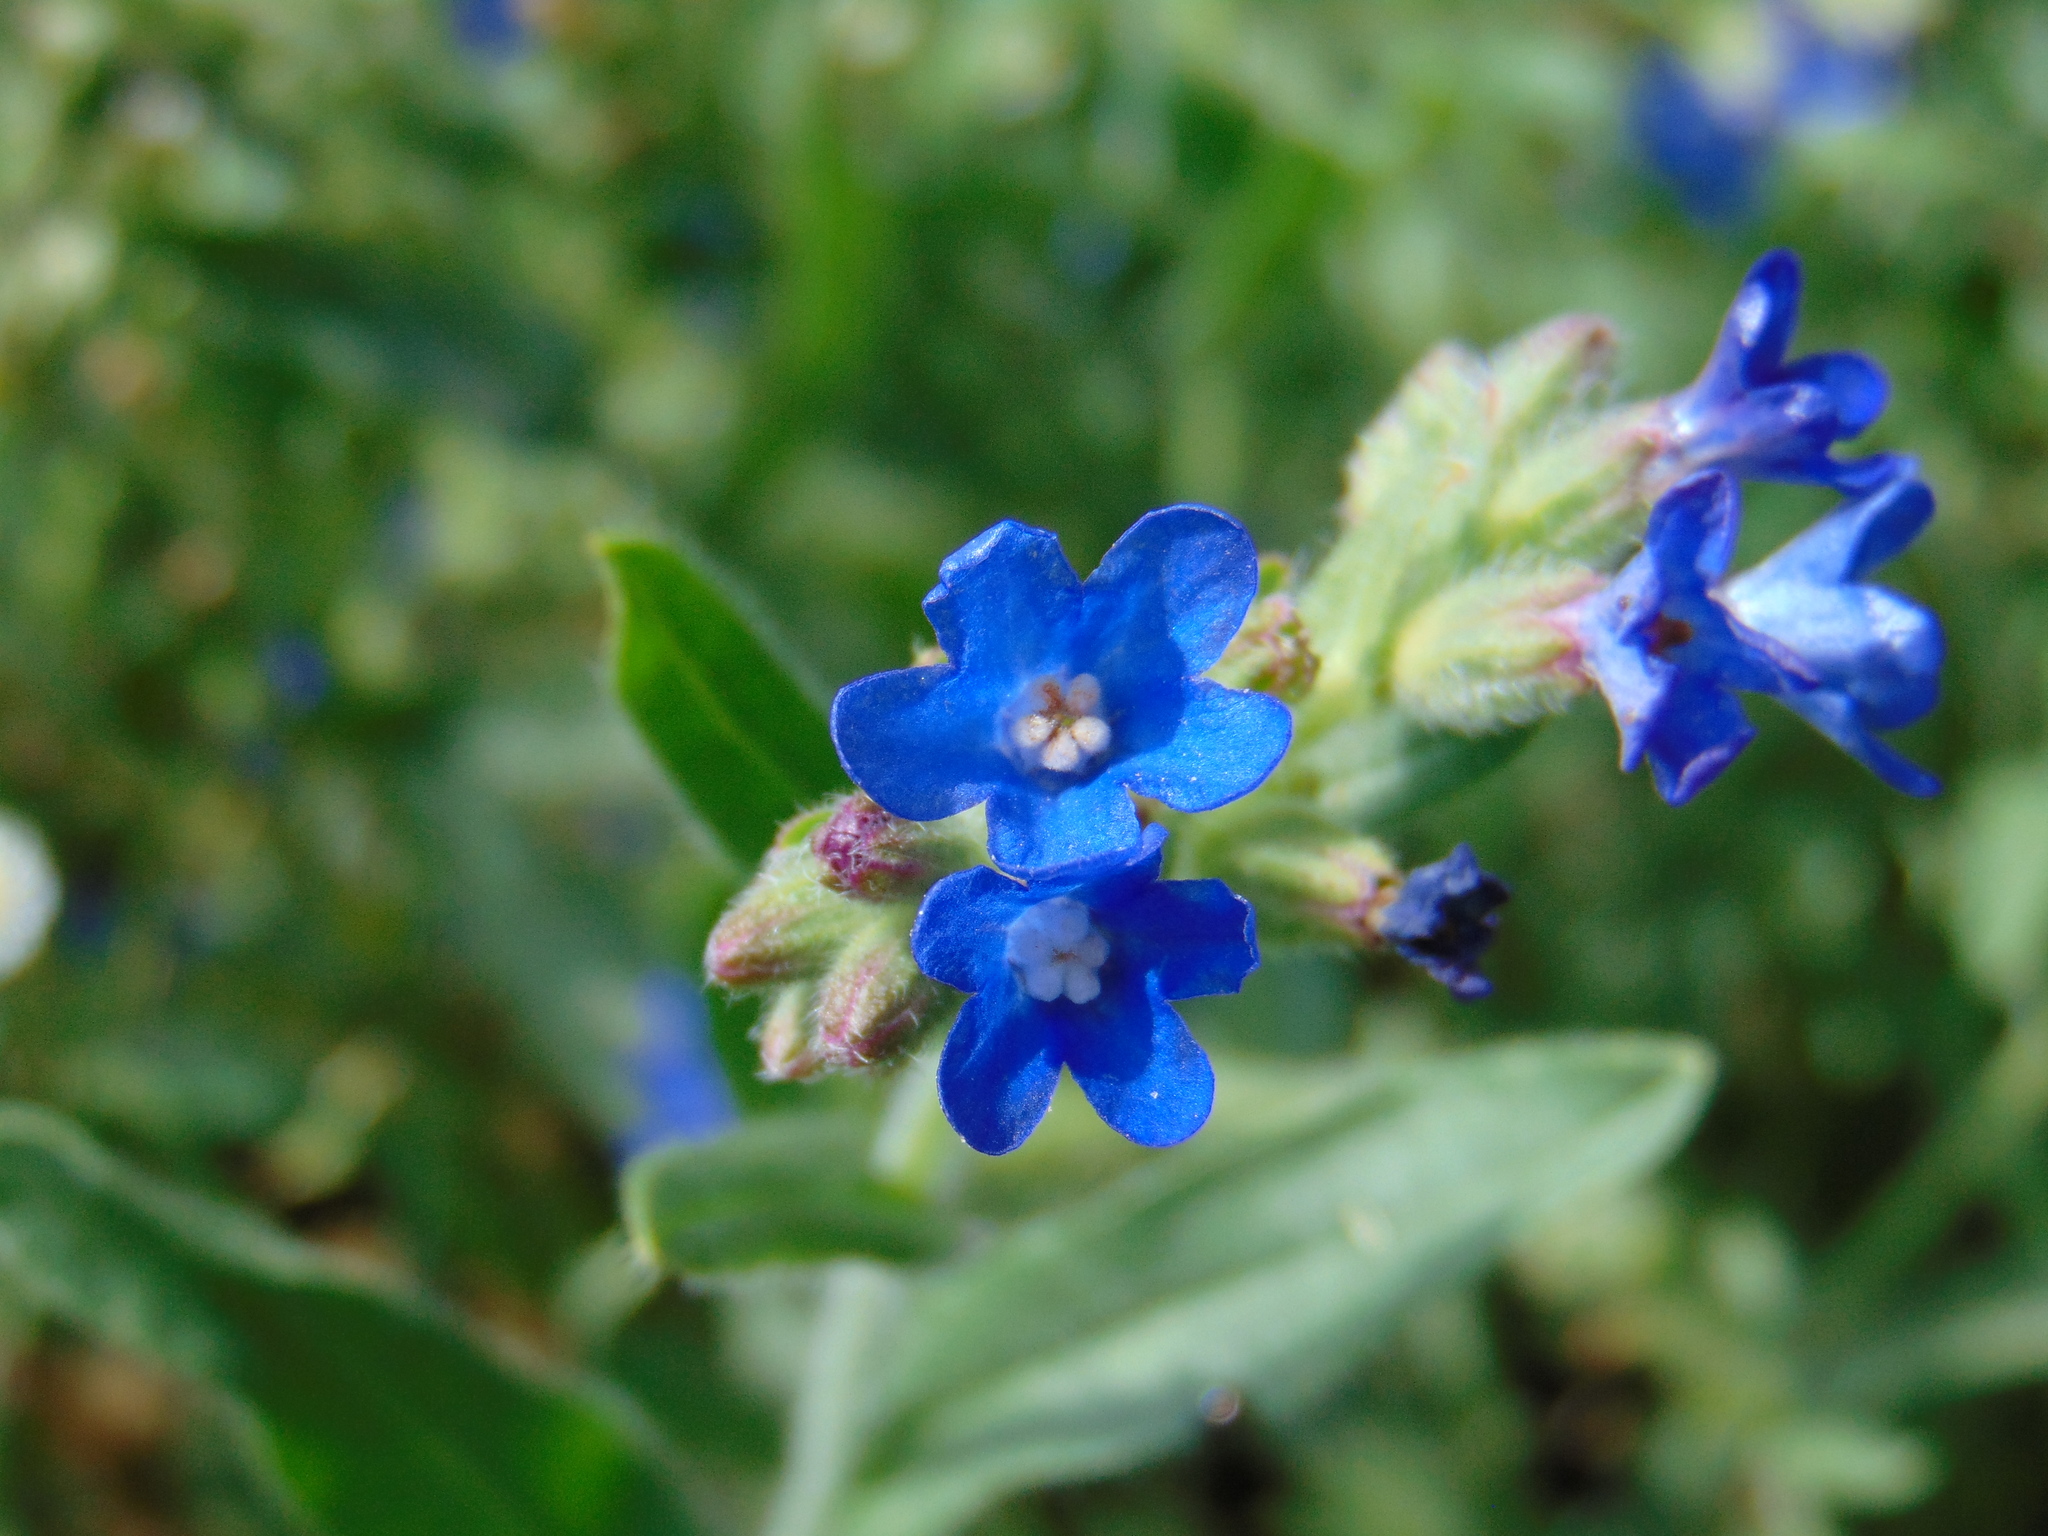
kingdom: Plantae
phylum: Tracheophyta
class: Magnoliopsida
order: Boraginales
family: Boraginaceae
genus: Anchusa
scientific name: Anchusa officinalis
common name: Alkanet
